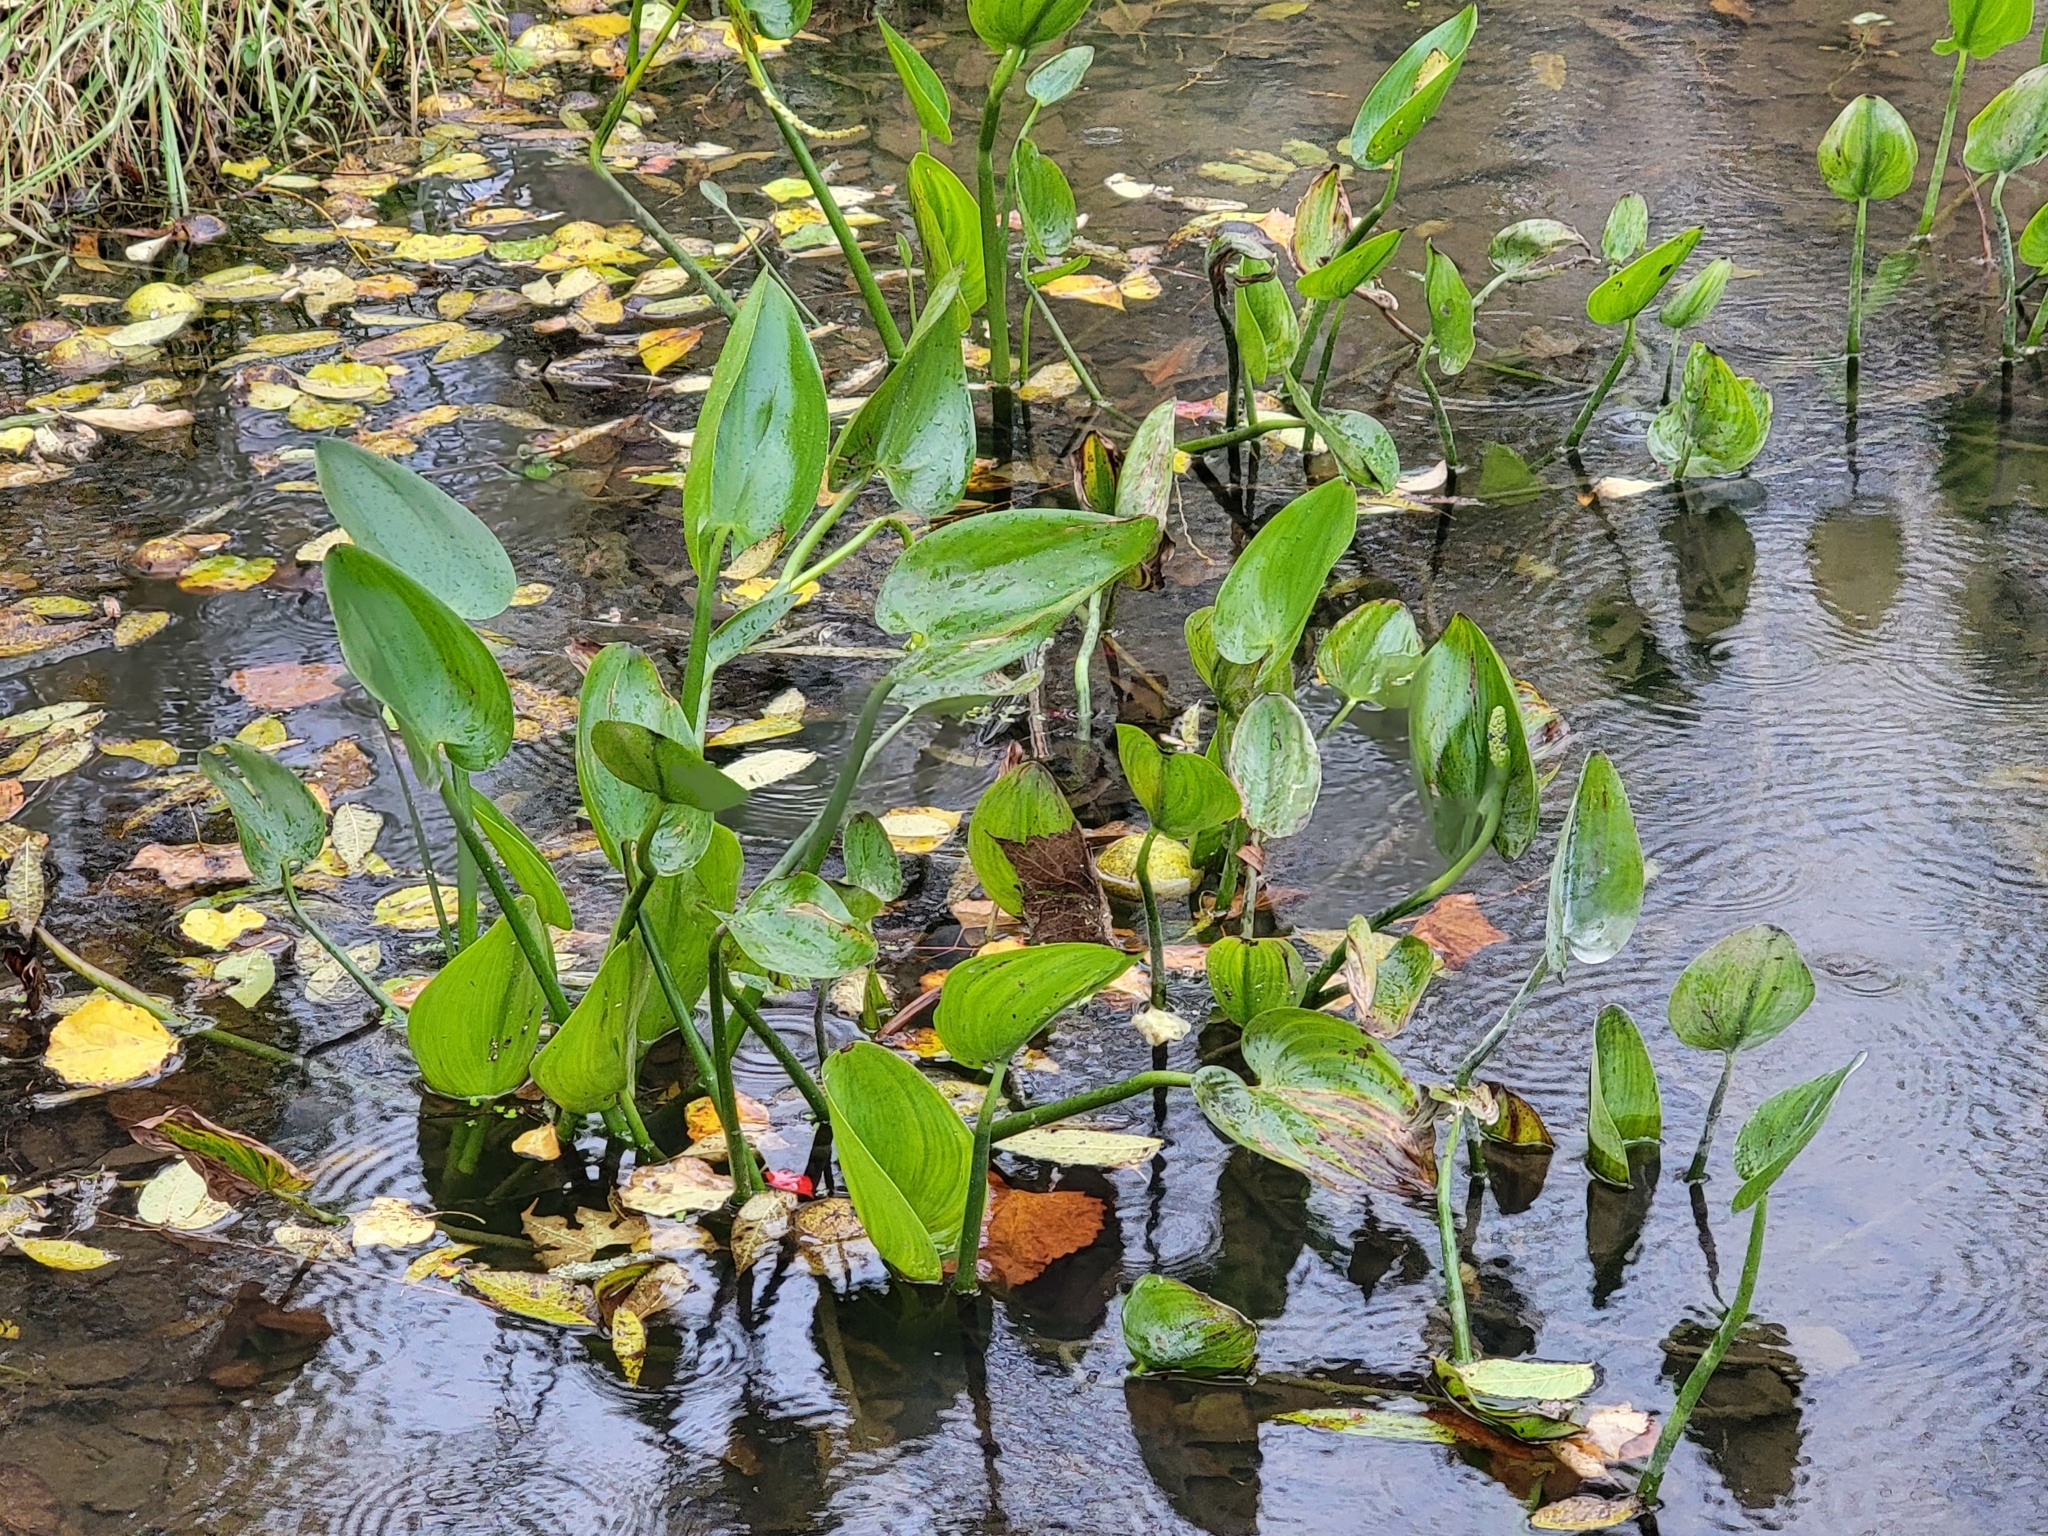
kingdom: Plantae
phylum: Tracheophyta
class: Liliopsida
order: Commelinales
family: Pontederiaceae
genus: Pontederia
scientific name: Pontederia cordata
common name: Pickerelweed
